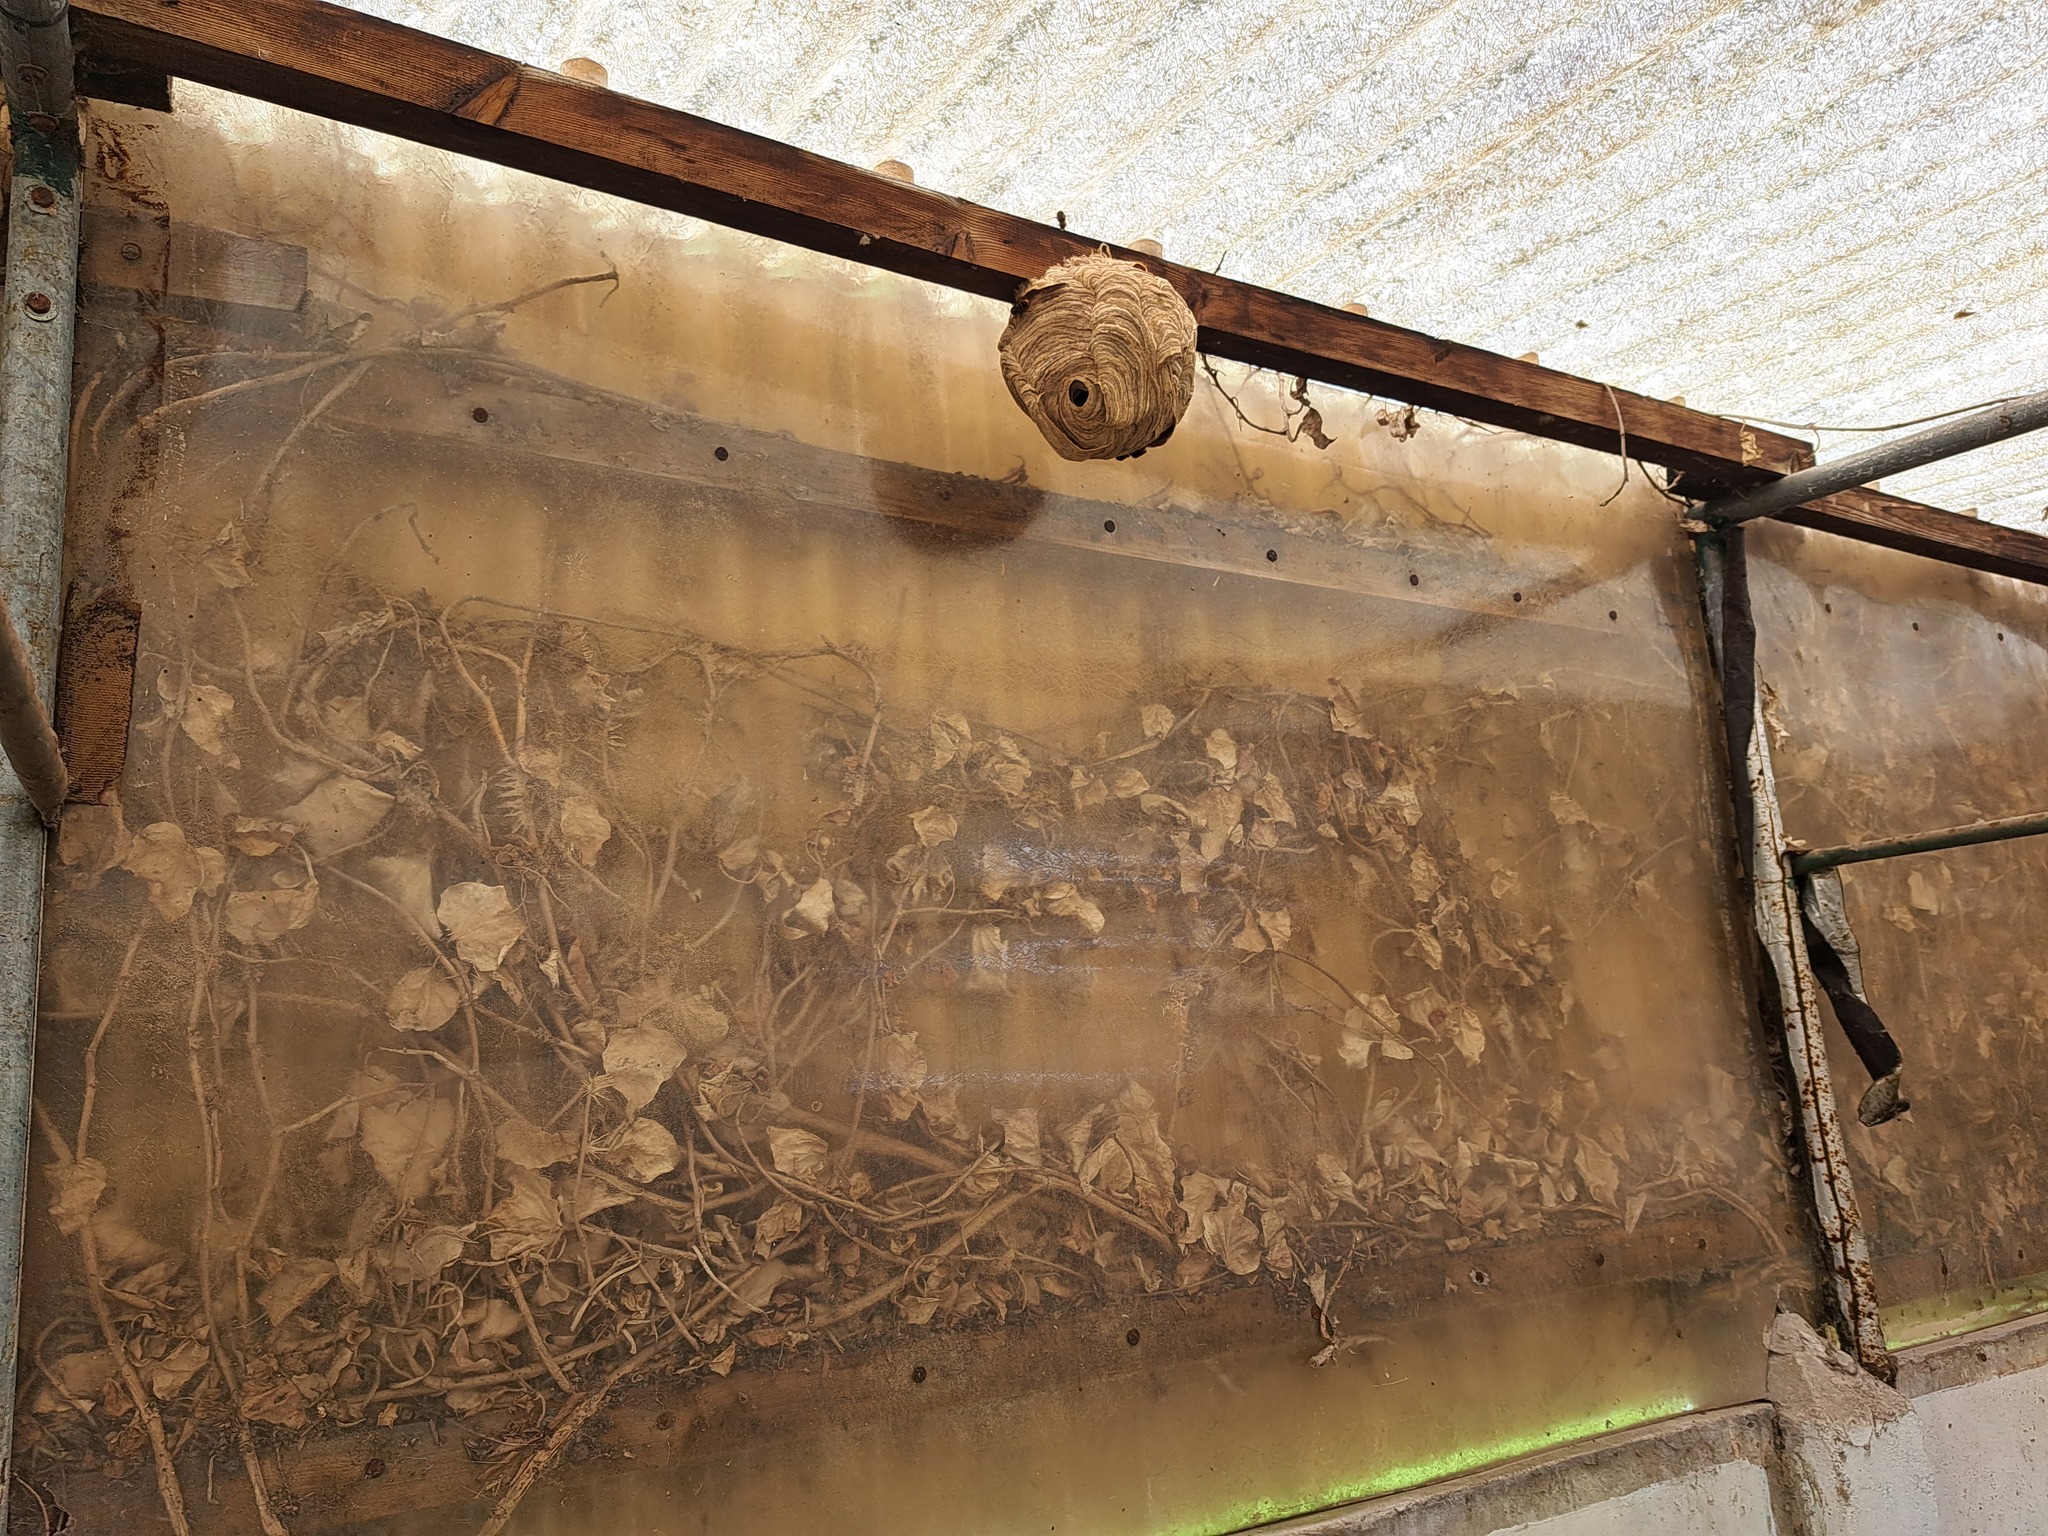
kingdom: Animalia
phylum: Arthropoda
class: Insecta
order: Hymenoptera
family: Vespidae
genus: Vespa
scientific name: Vespa velutina
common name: Asian hornet
